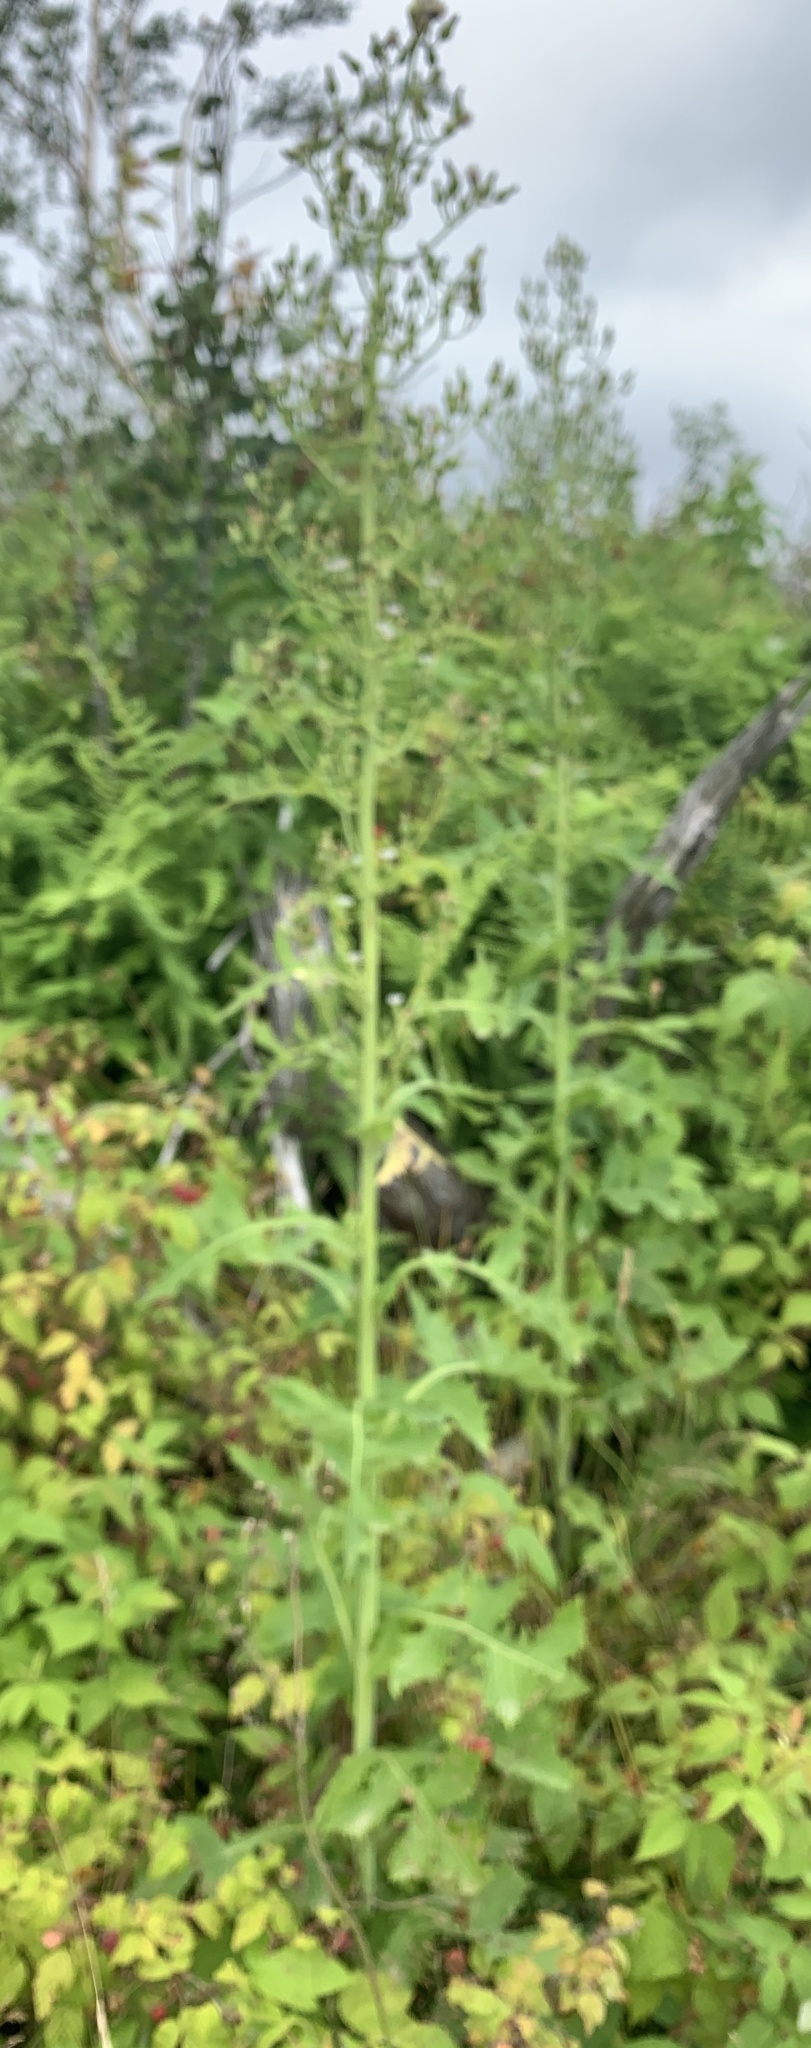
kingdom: Plantae
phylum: Tracheophyta
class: Magnoliopsida
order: Asterales
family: Asteraceae
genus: Lactuca
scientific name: Lactuca biennis
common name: Blue wood lettuce
